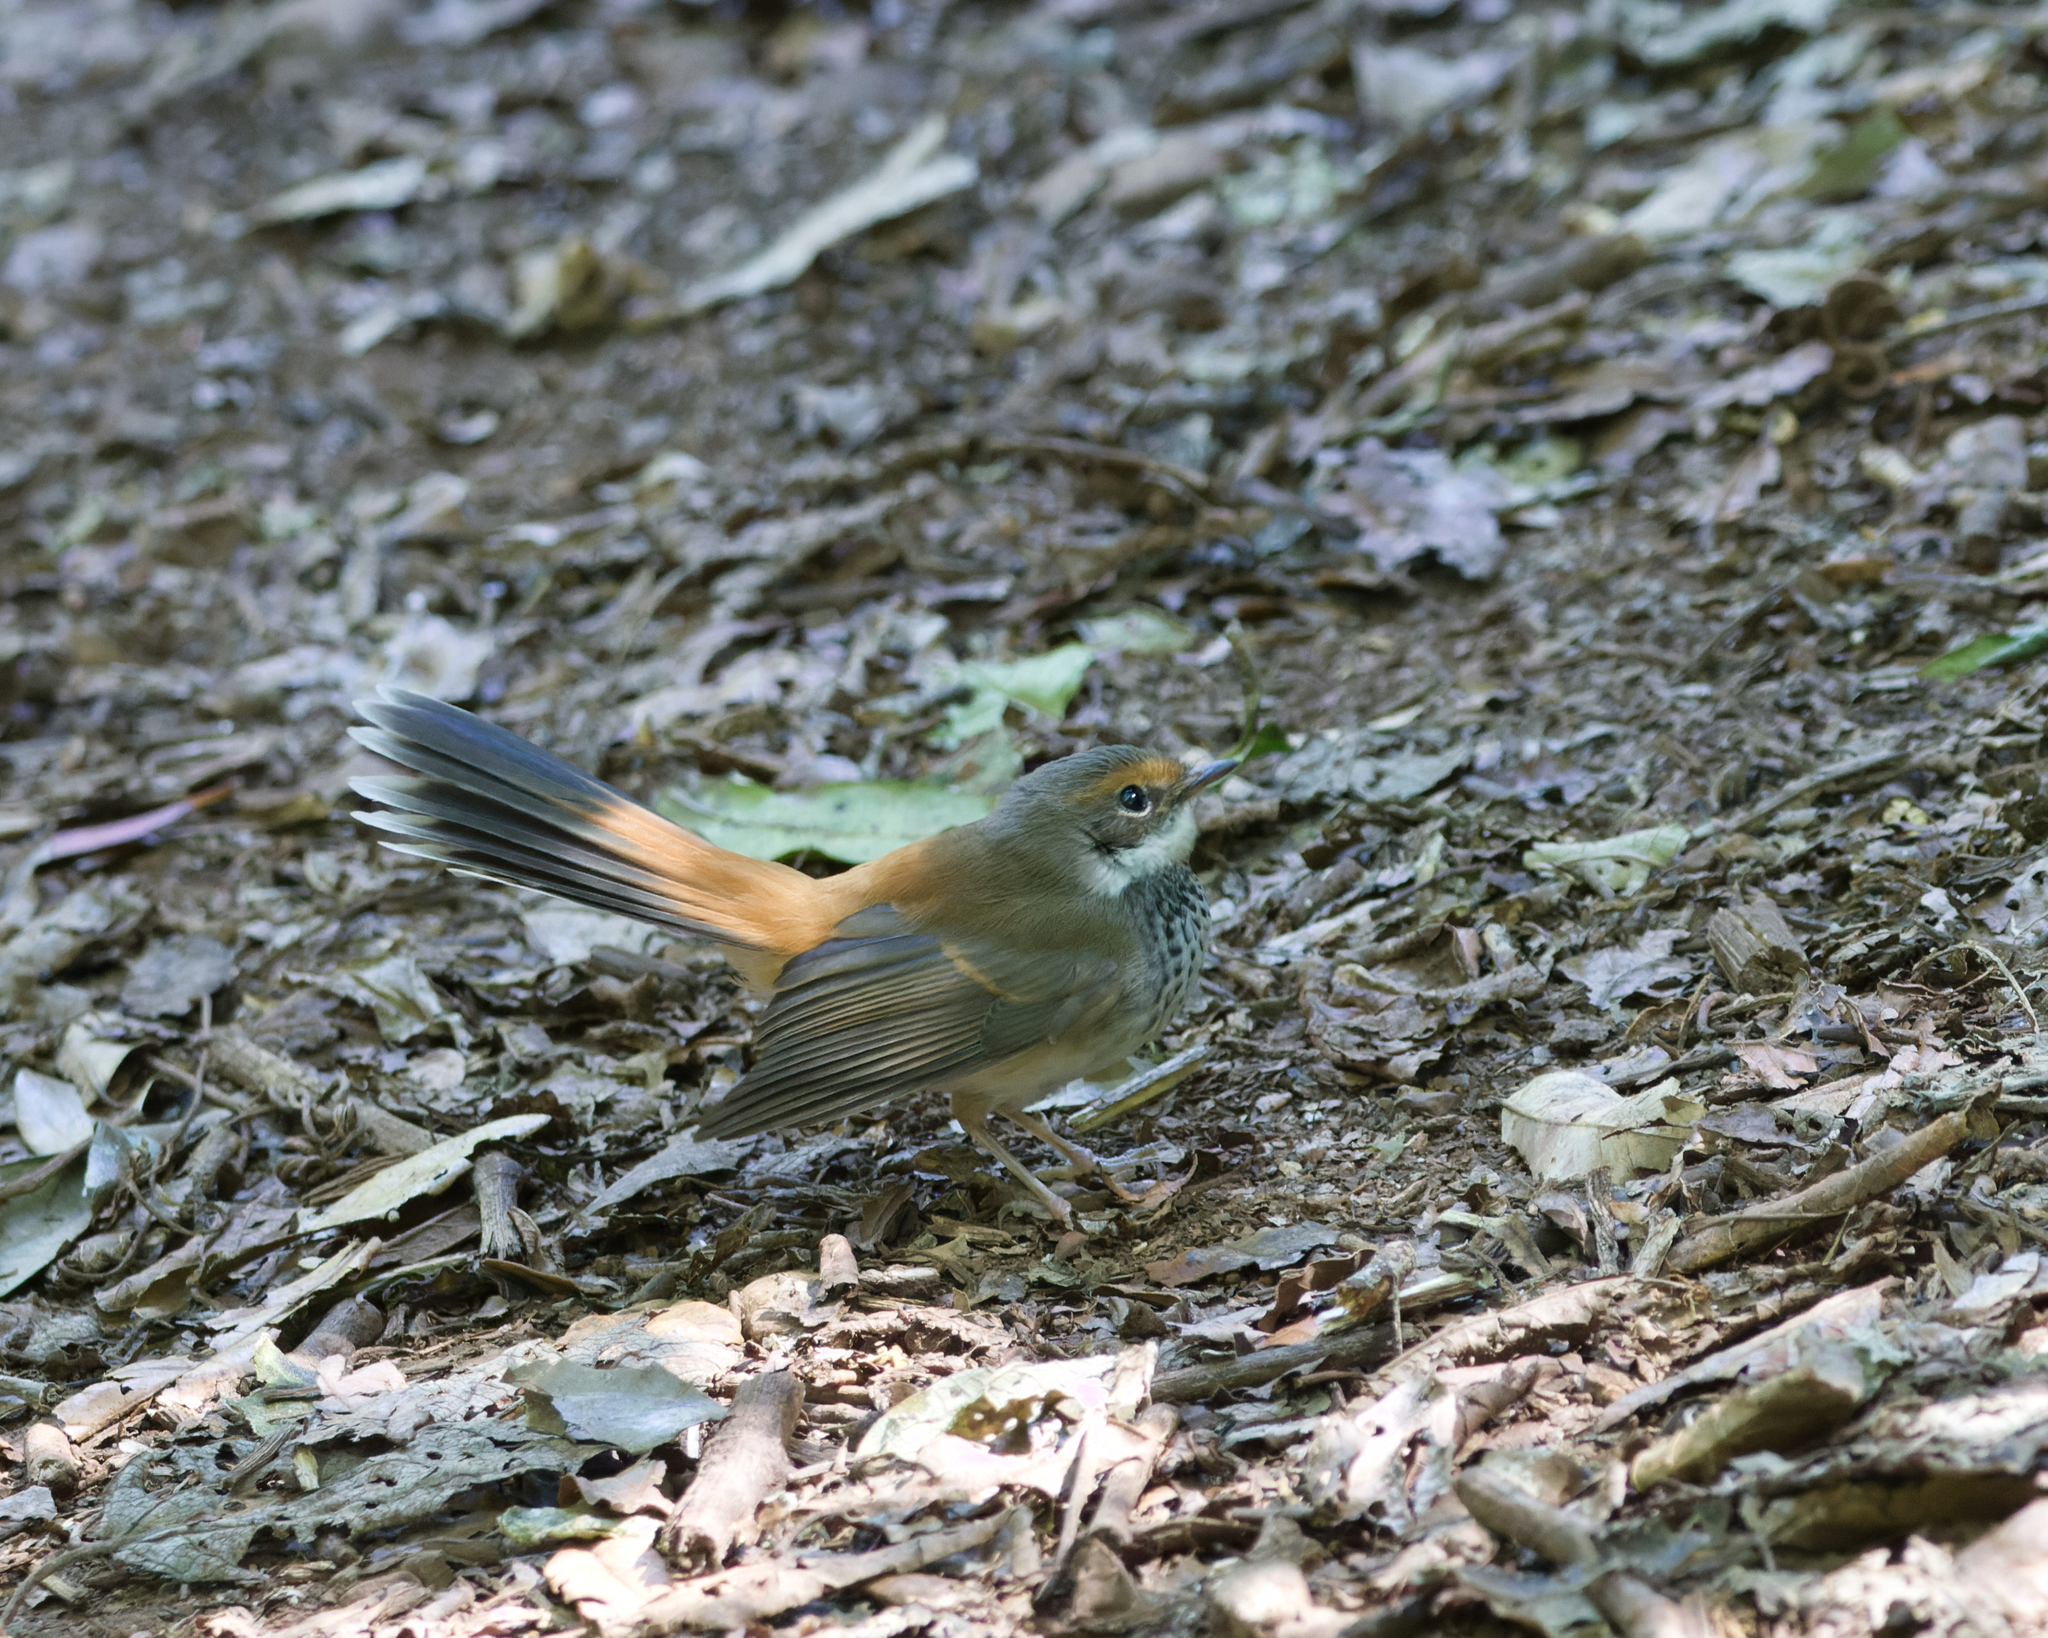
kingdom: Animalia
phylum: Chordata
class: Aves
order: Passeriformes
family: Rhipiduridae
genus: Rhipidura
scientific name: Rhipidura rufifrons
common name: Rufous fantail
